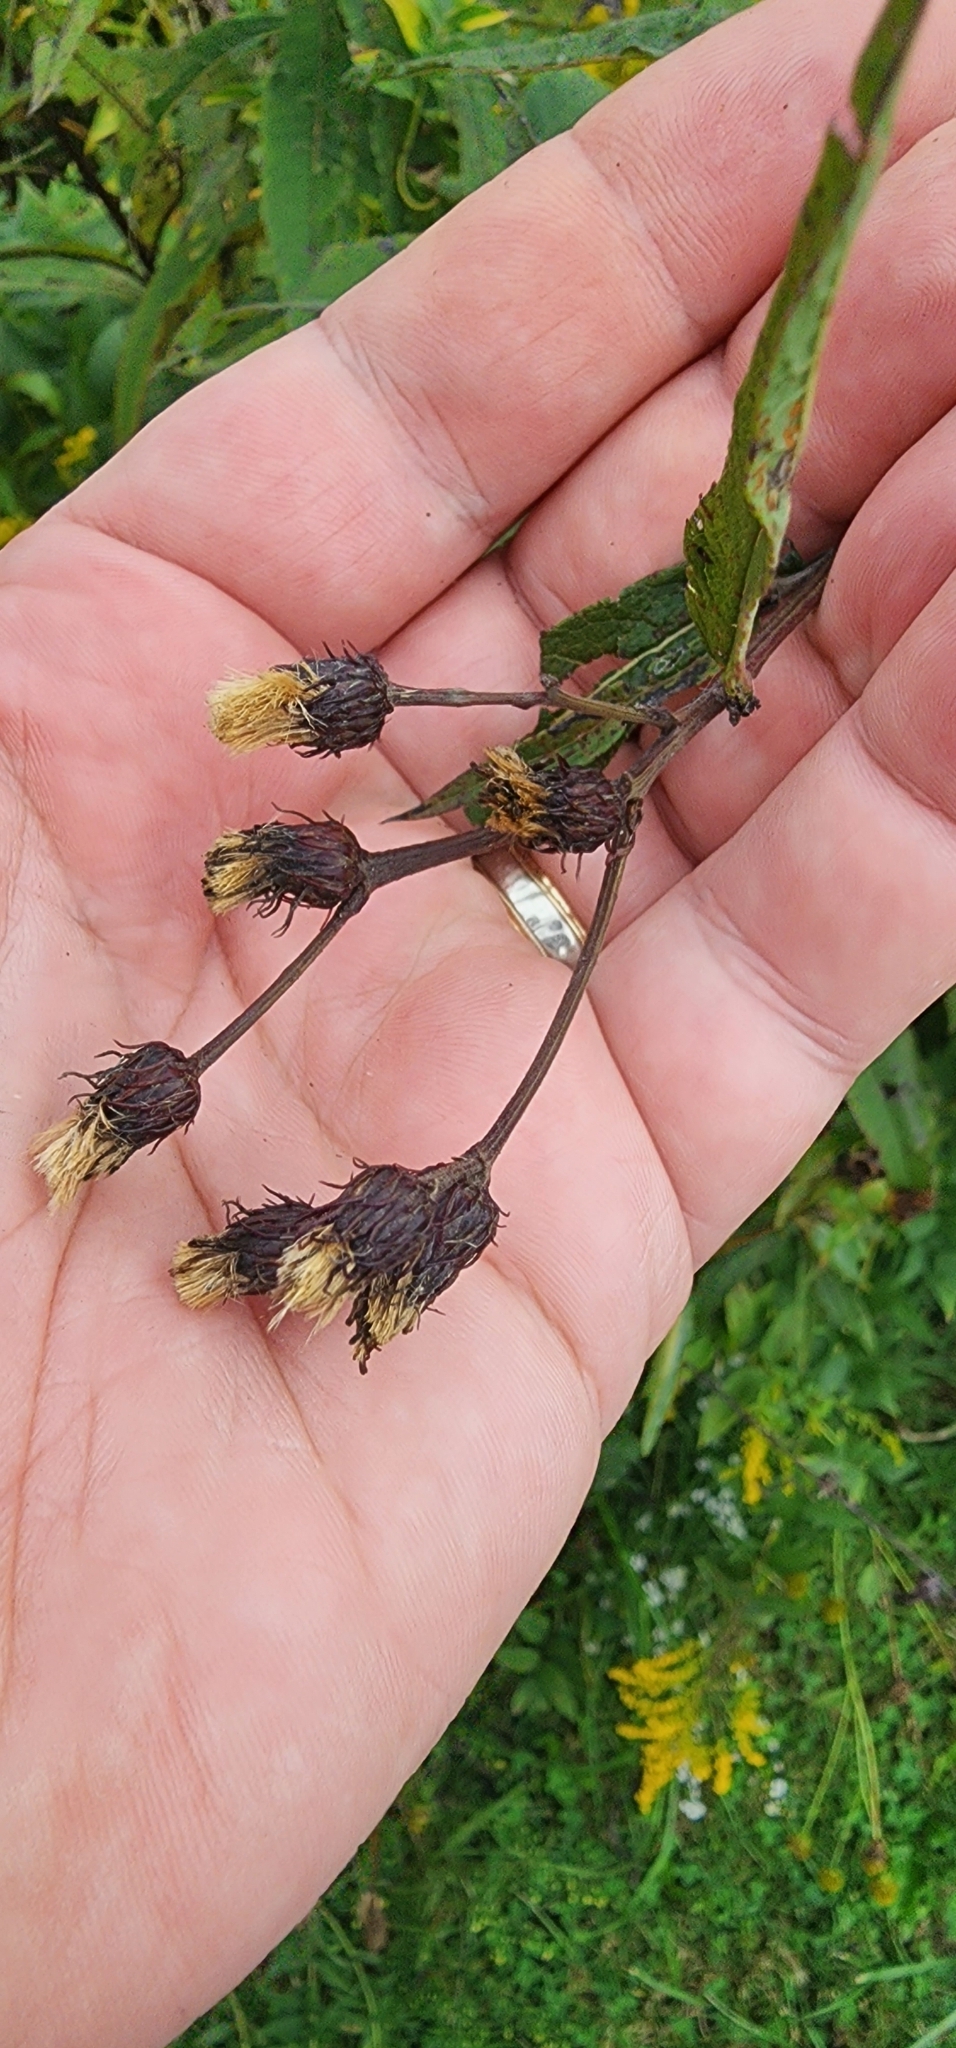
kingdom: Plantae
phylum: Tracheophyta
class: Magnoliopsida
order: Asterales
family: Asteraceae
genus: Vernonia
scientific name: Vernonia noveboracensis
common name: New york ironweed
